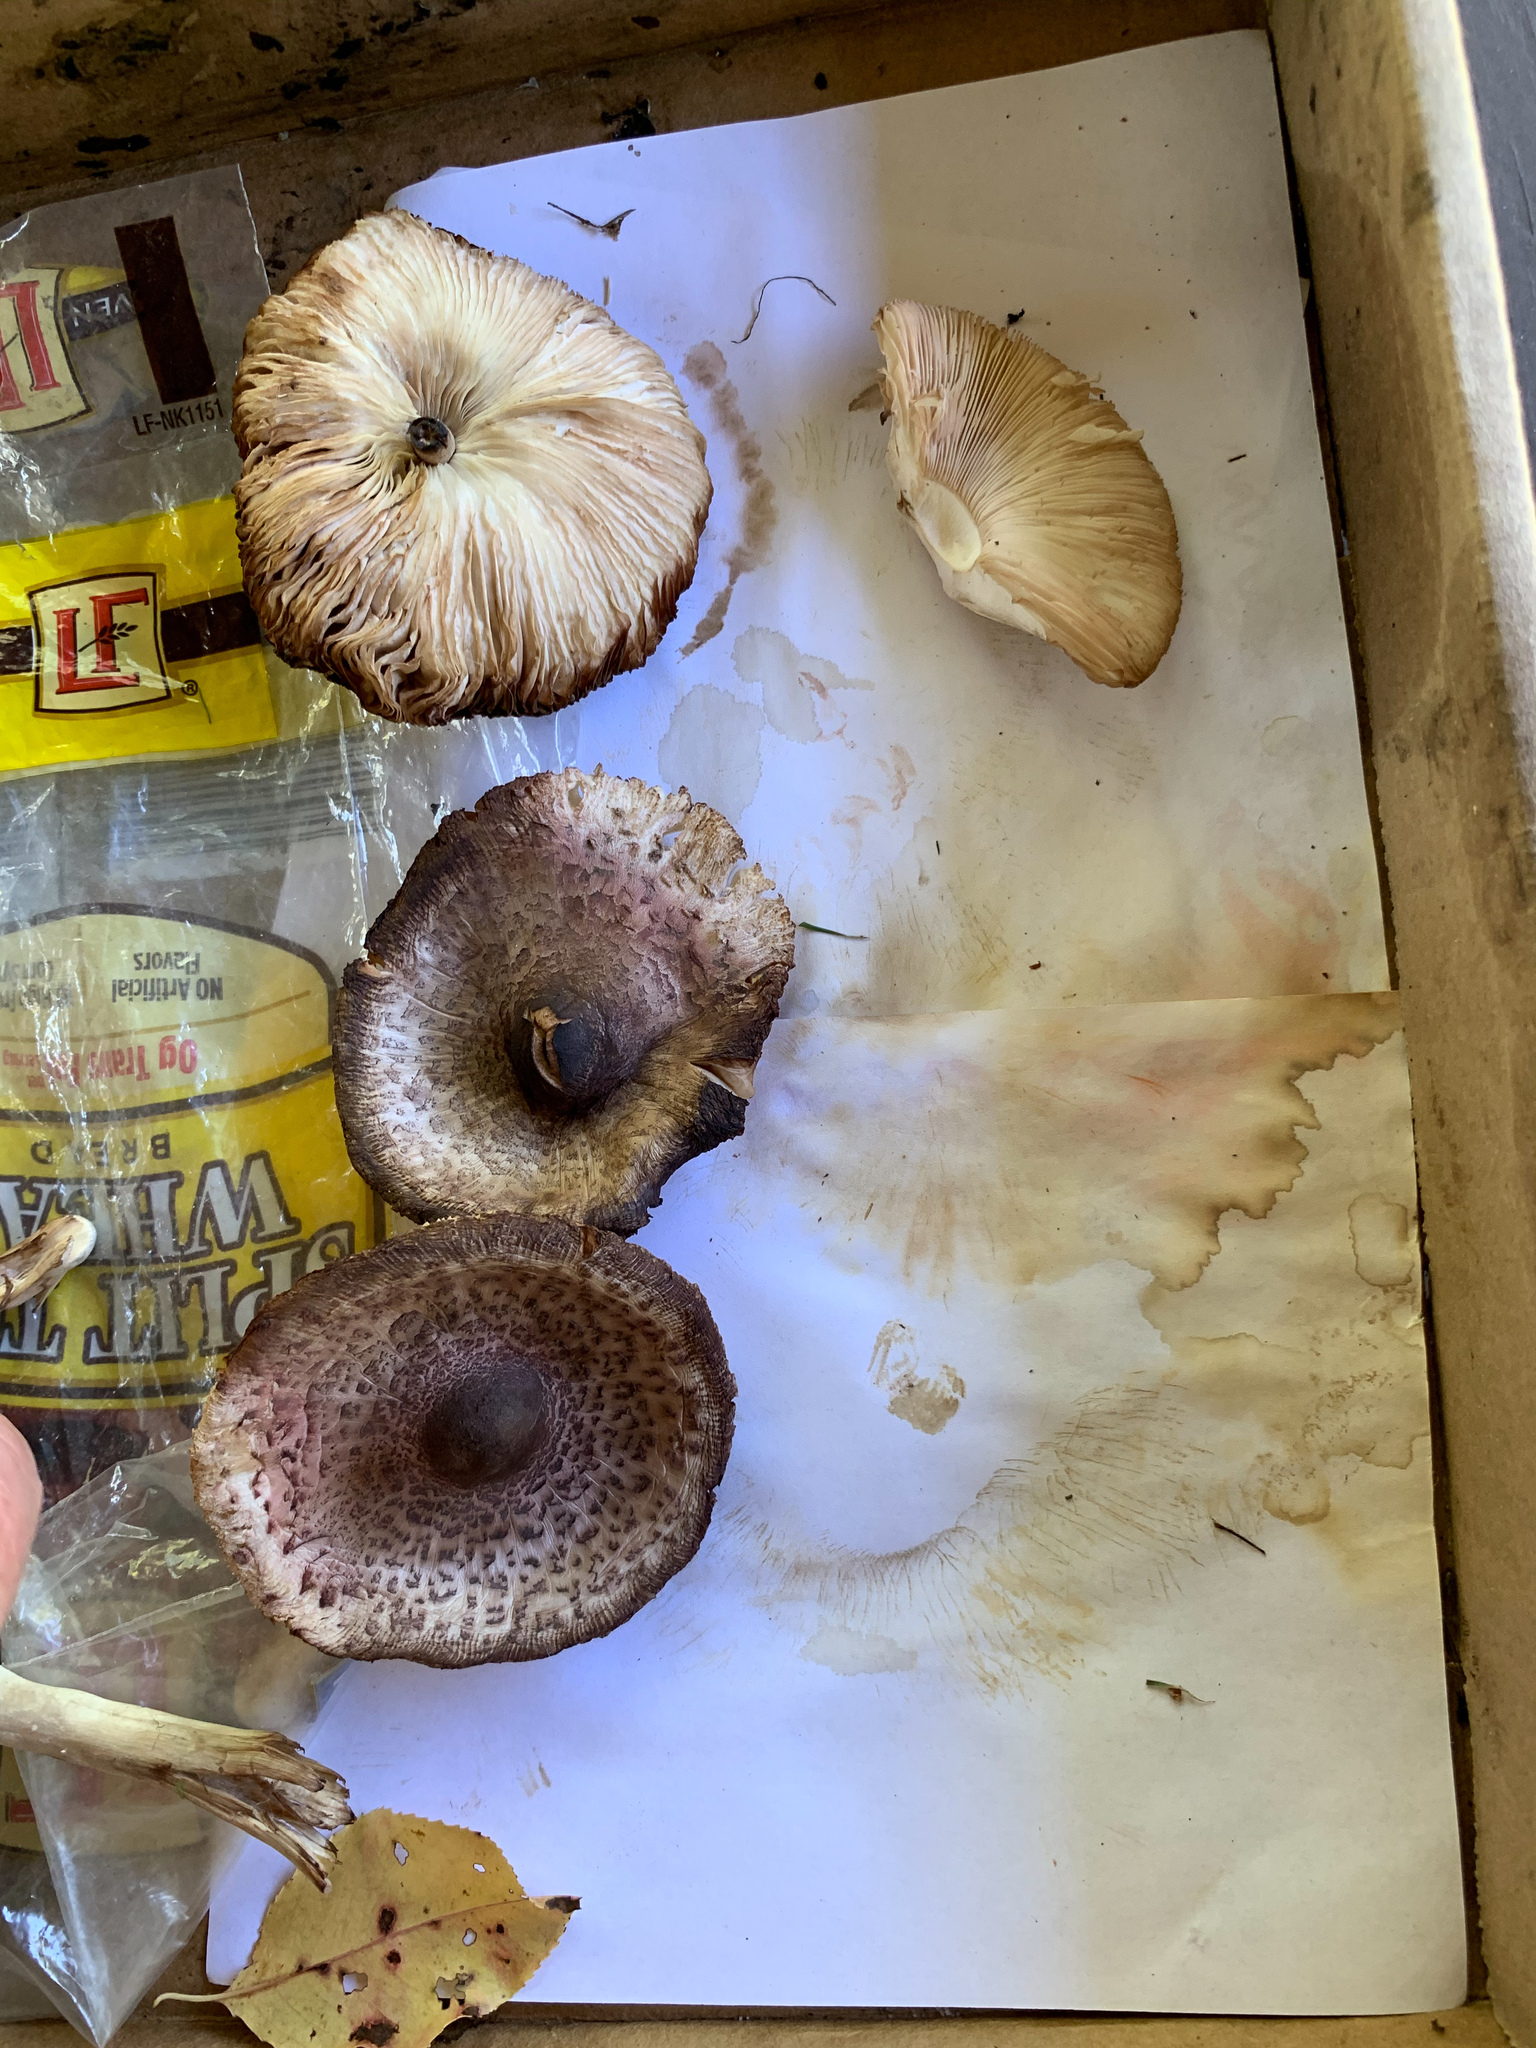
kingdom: Fungi
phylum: Basidiomycota
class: Agaricomycetes
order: Agaricales
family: Agaricaceae
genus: Leucoagaricus
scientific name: Leucoagaricus americanus
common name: Reddening lepiota
